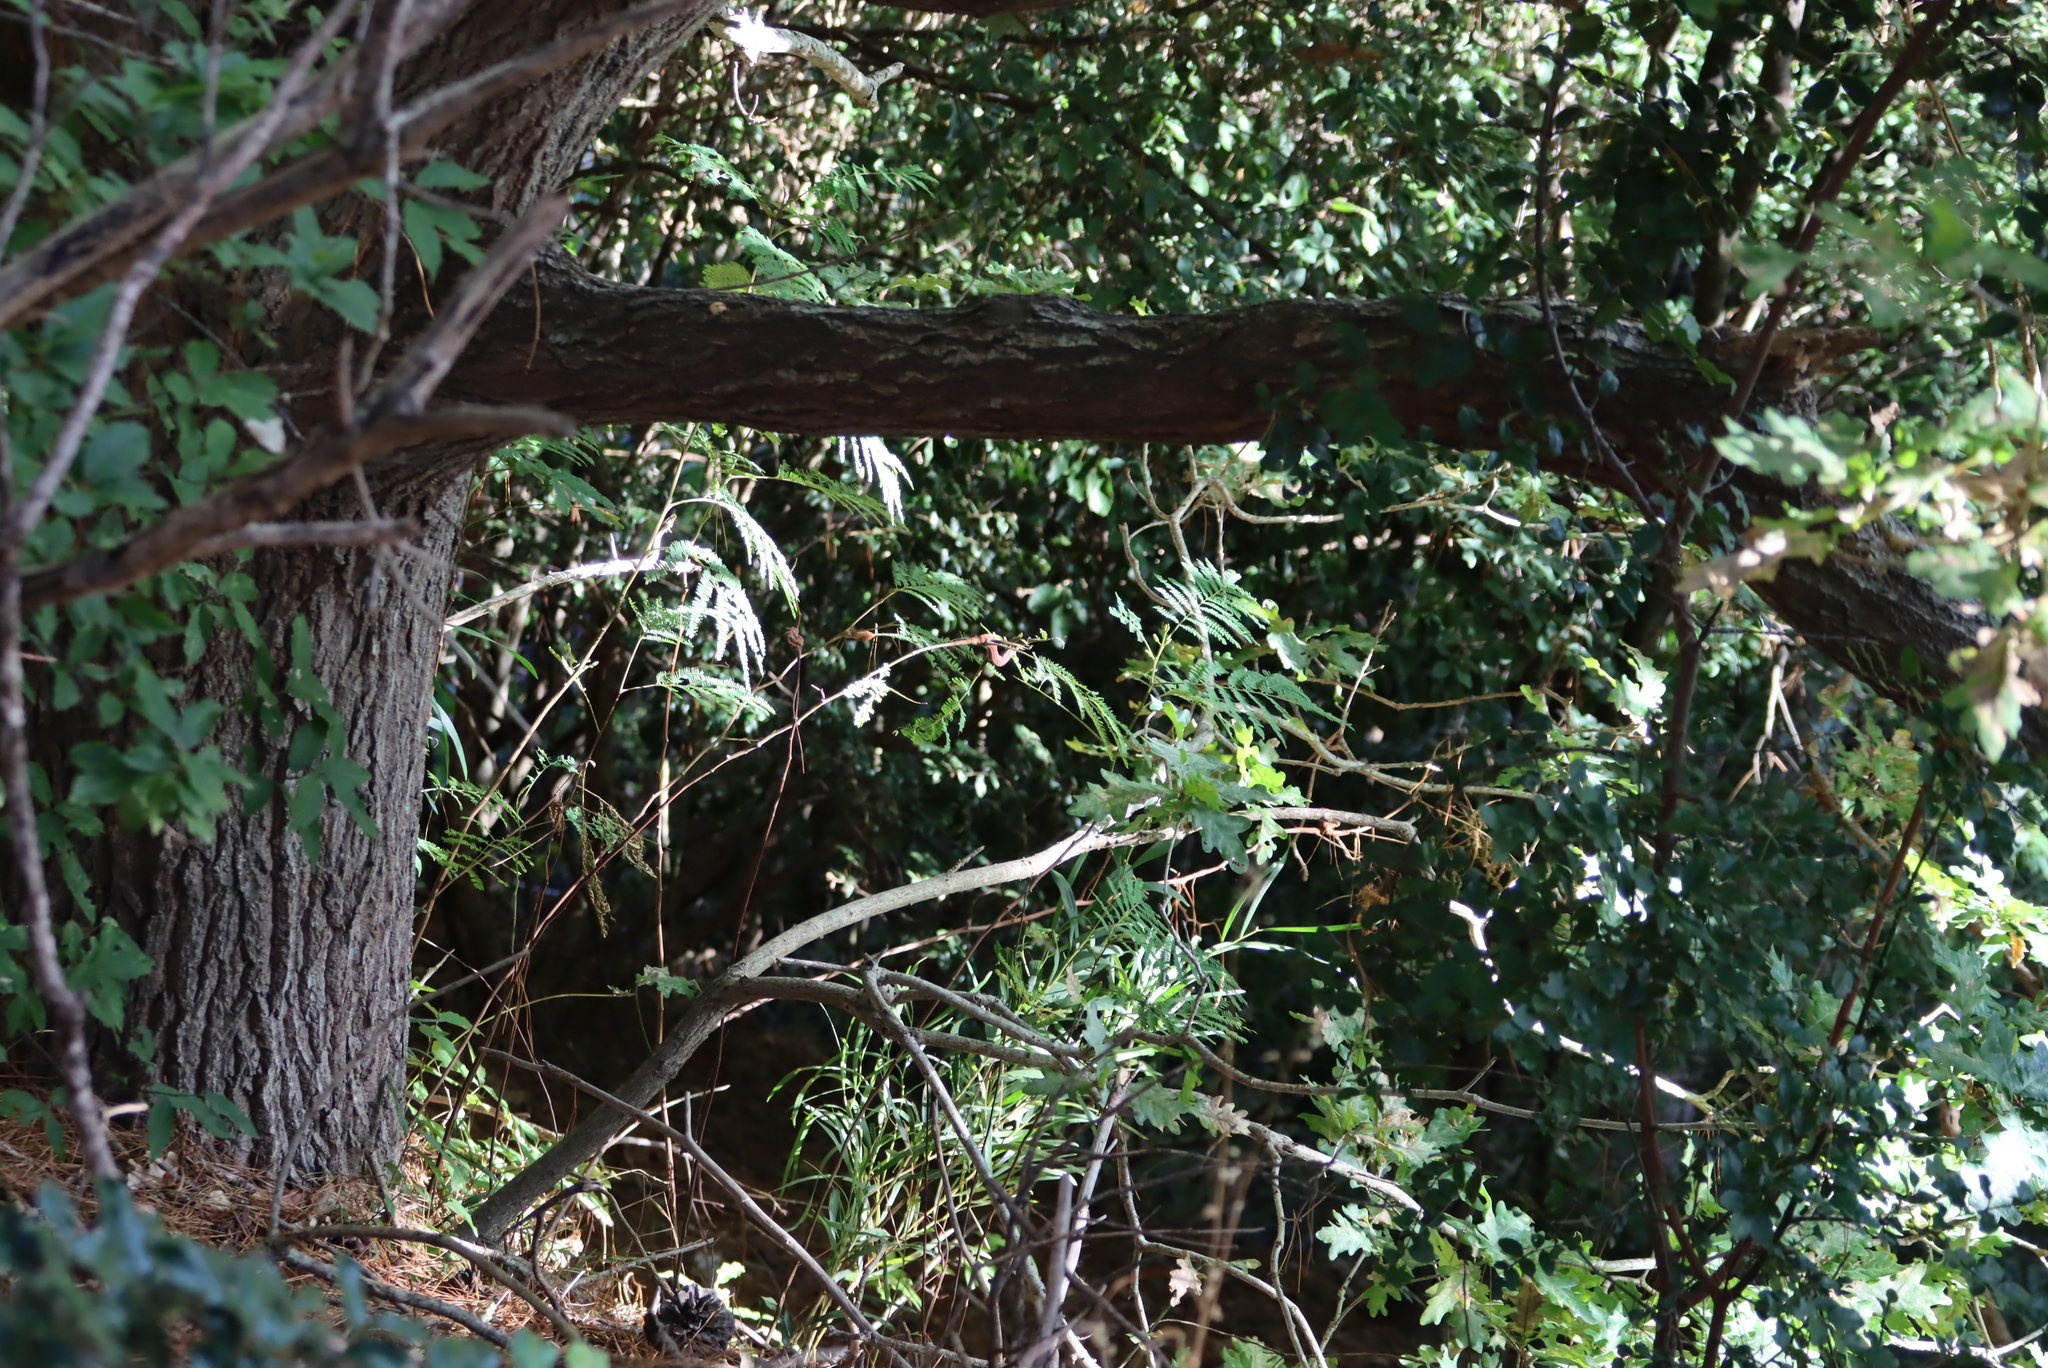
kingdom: Plantae
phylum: Tracheophyta
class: Magnoliopsida
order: Fabales
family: Fabaceae
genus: Paraserianthes
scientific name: Paraserianthes lophantha
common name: Plume albizia
